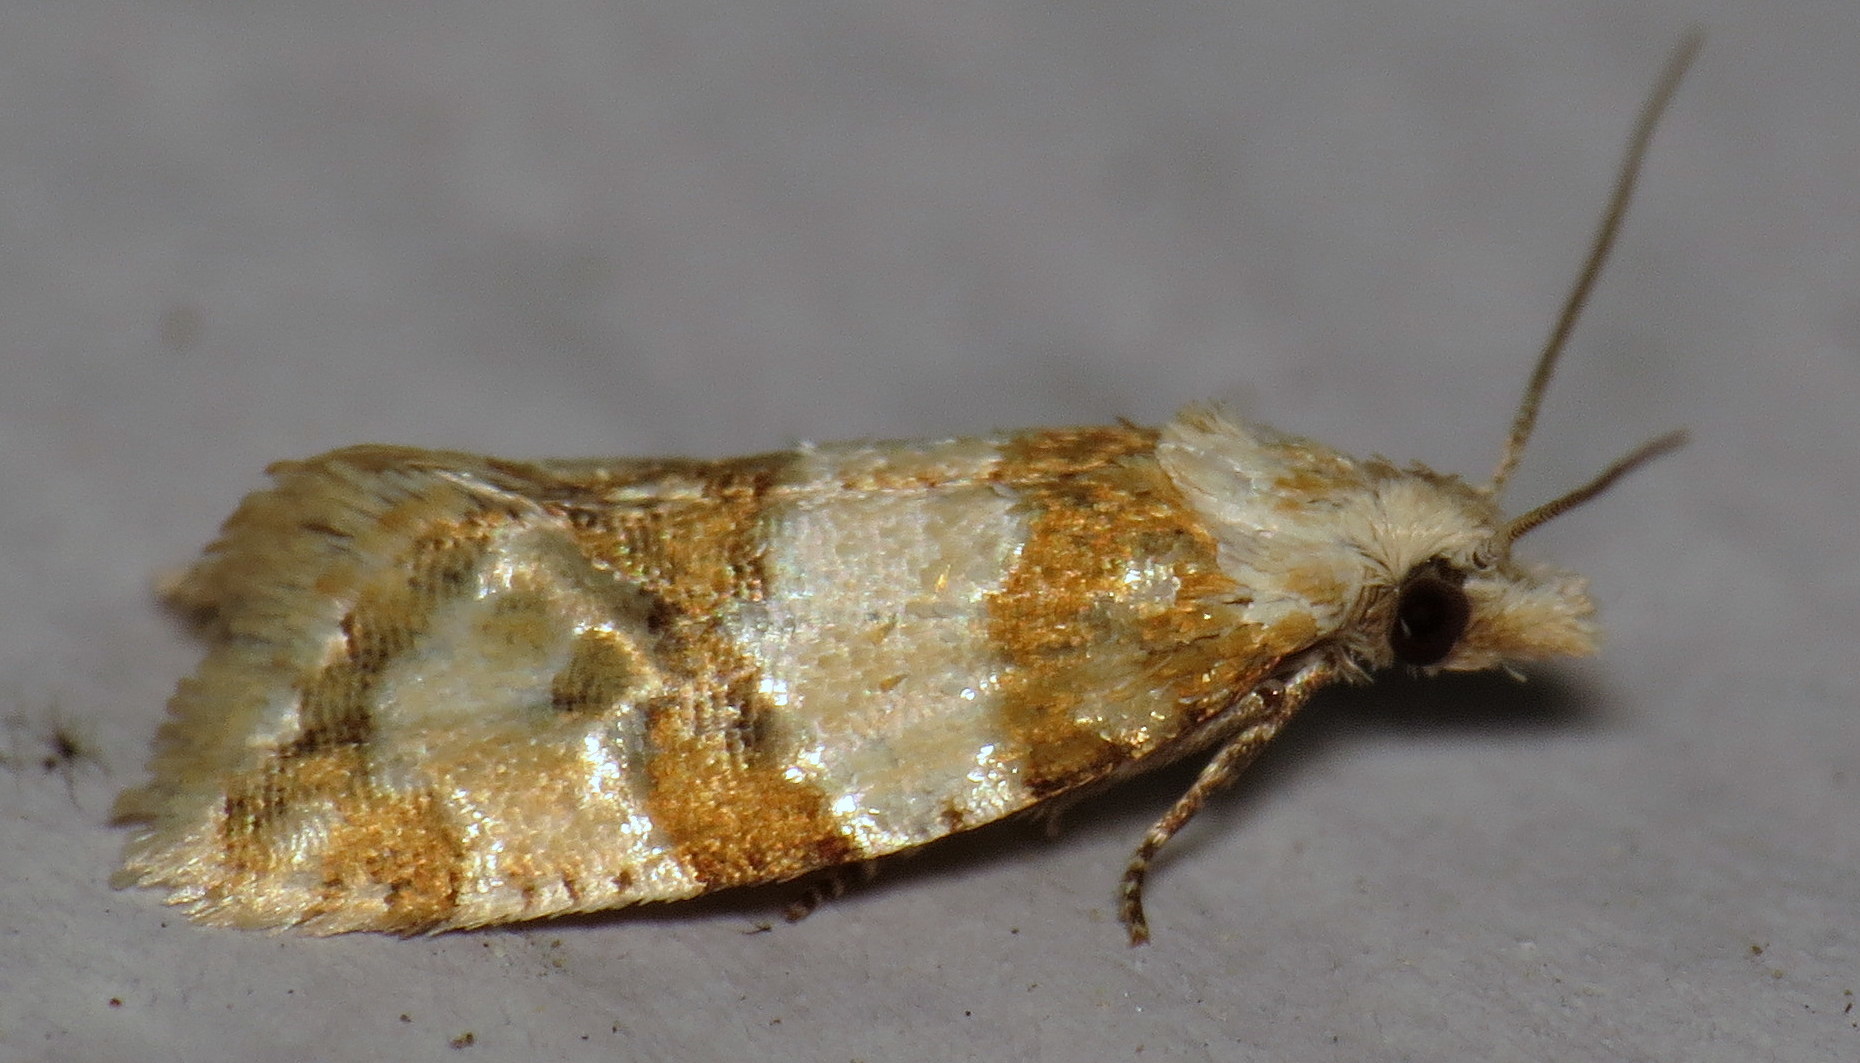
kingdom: Animalia
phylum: Arthropoda
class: Insecta
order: Lepidoptera
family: Tortricidae
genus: Aethes
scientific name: Aethes argentilimitana
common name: Silver-bordered aethes
